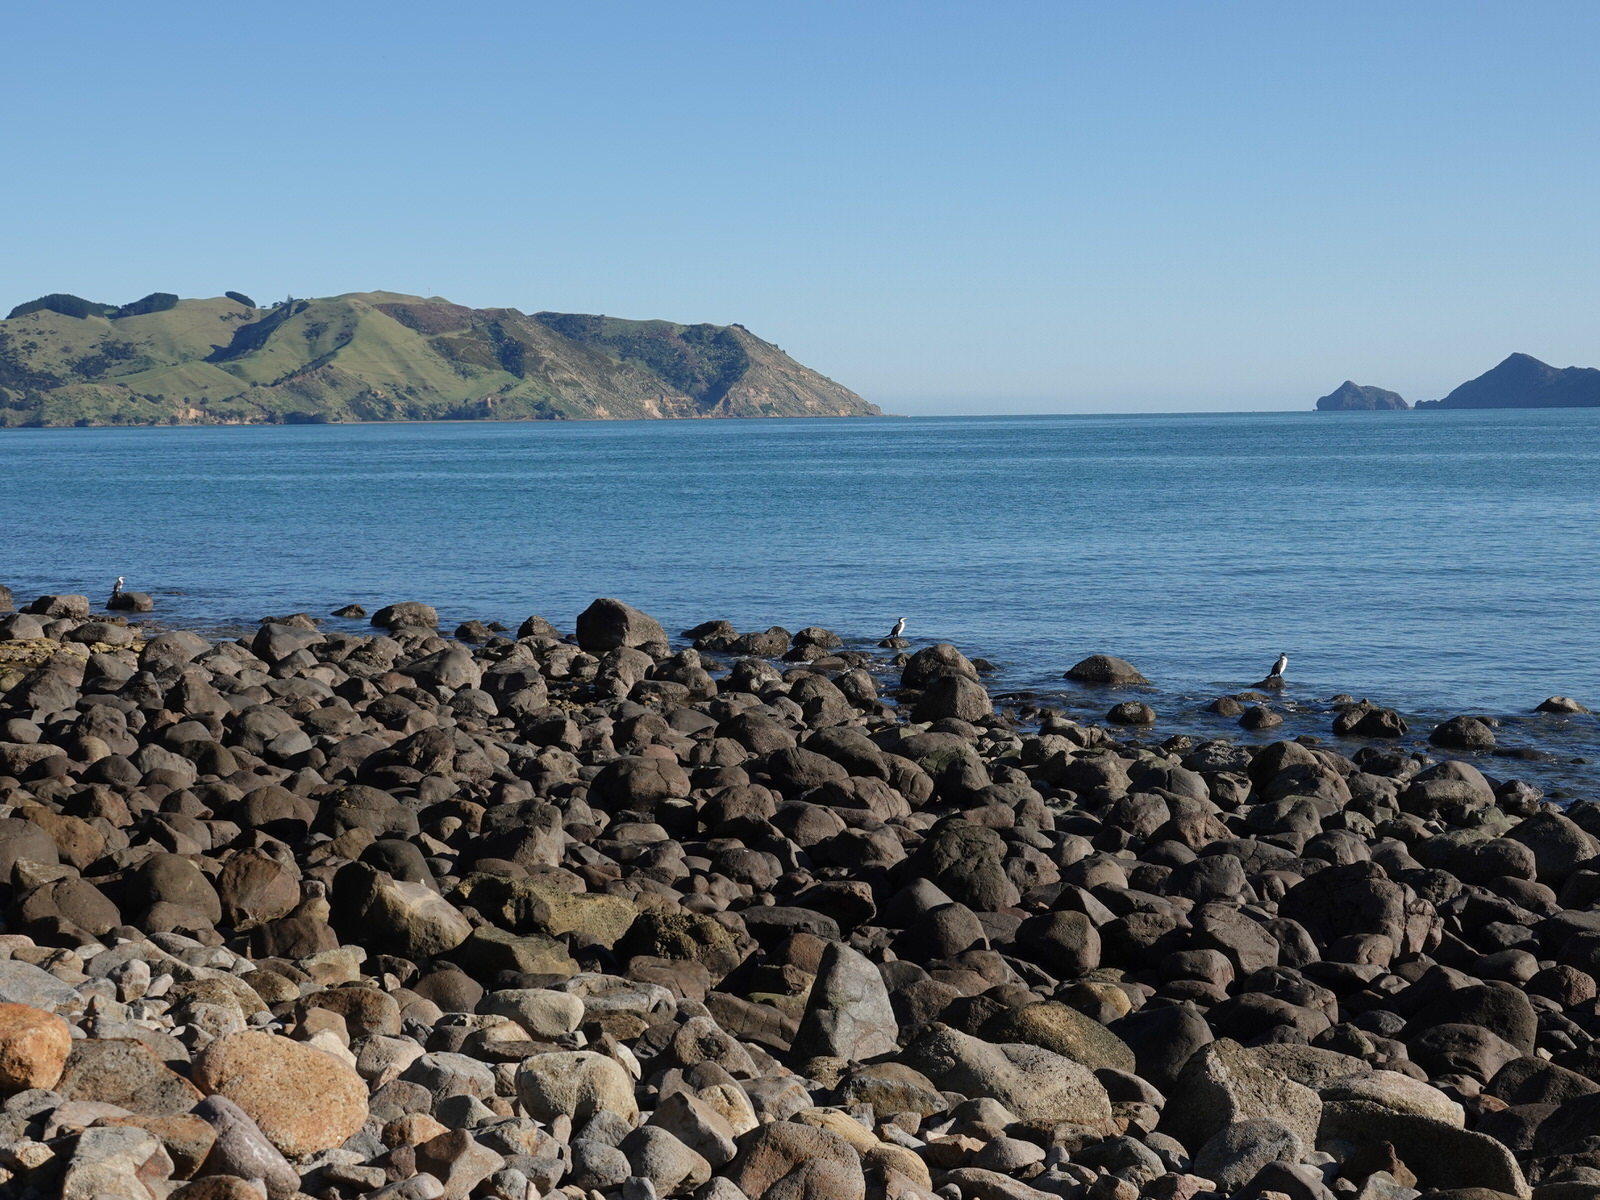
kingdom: Animalia
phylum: Chordata
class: Aves
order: Suliformes
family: Phalacrocoracidae
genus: Phalacrocorax
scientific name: Phalacrocorax varius
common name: Pied cormorant
